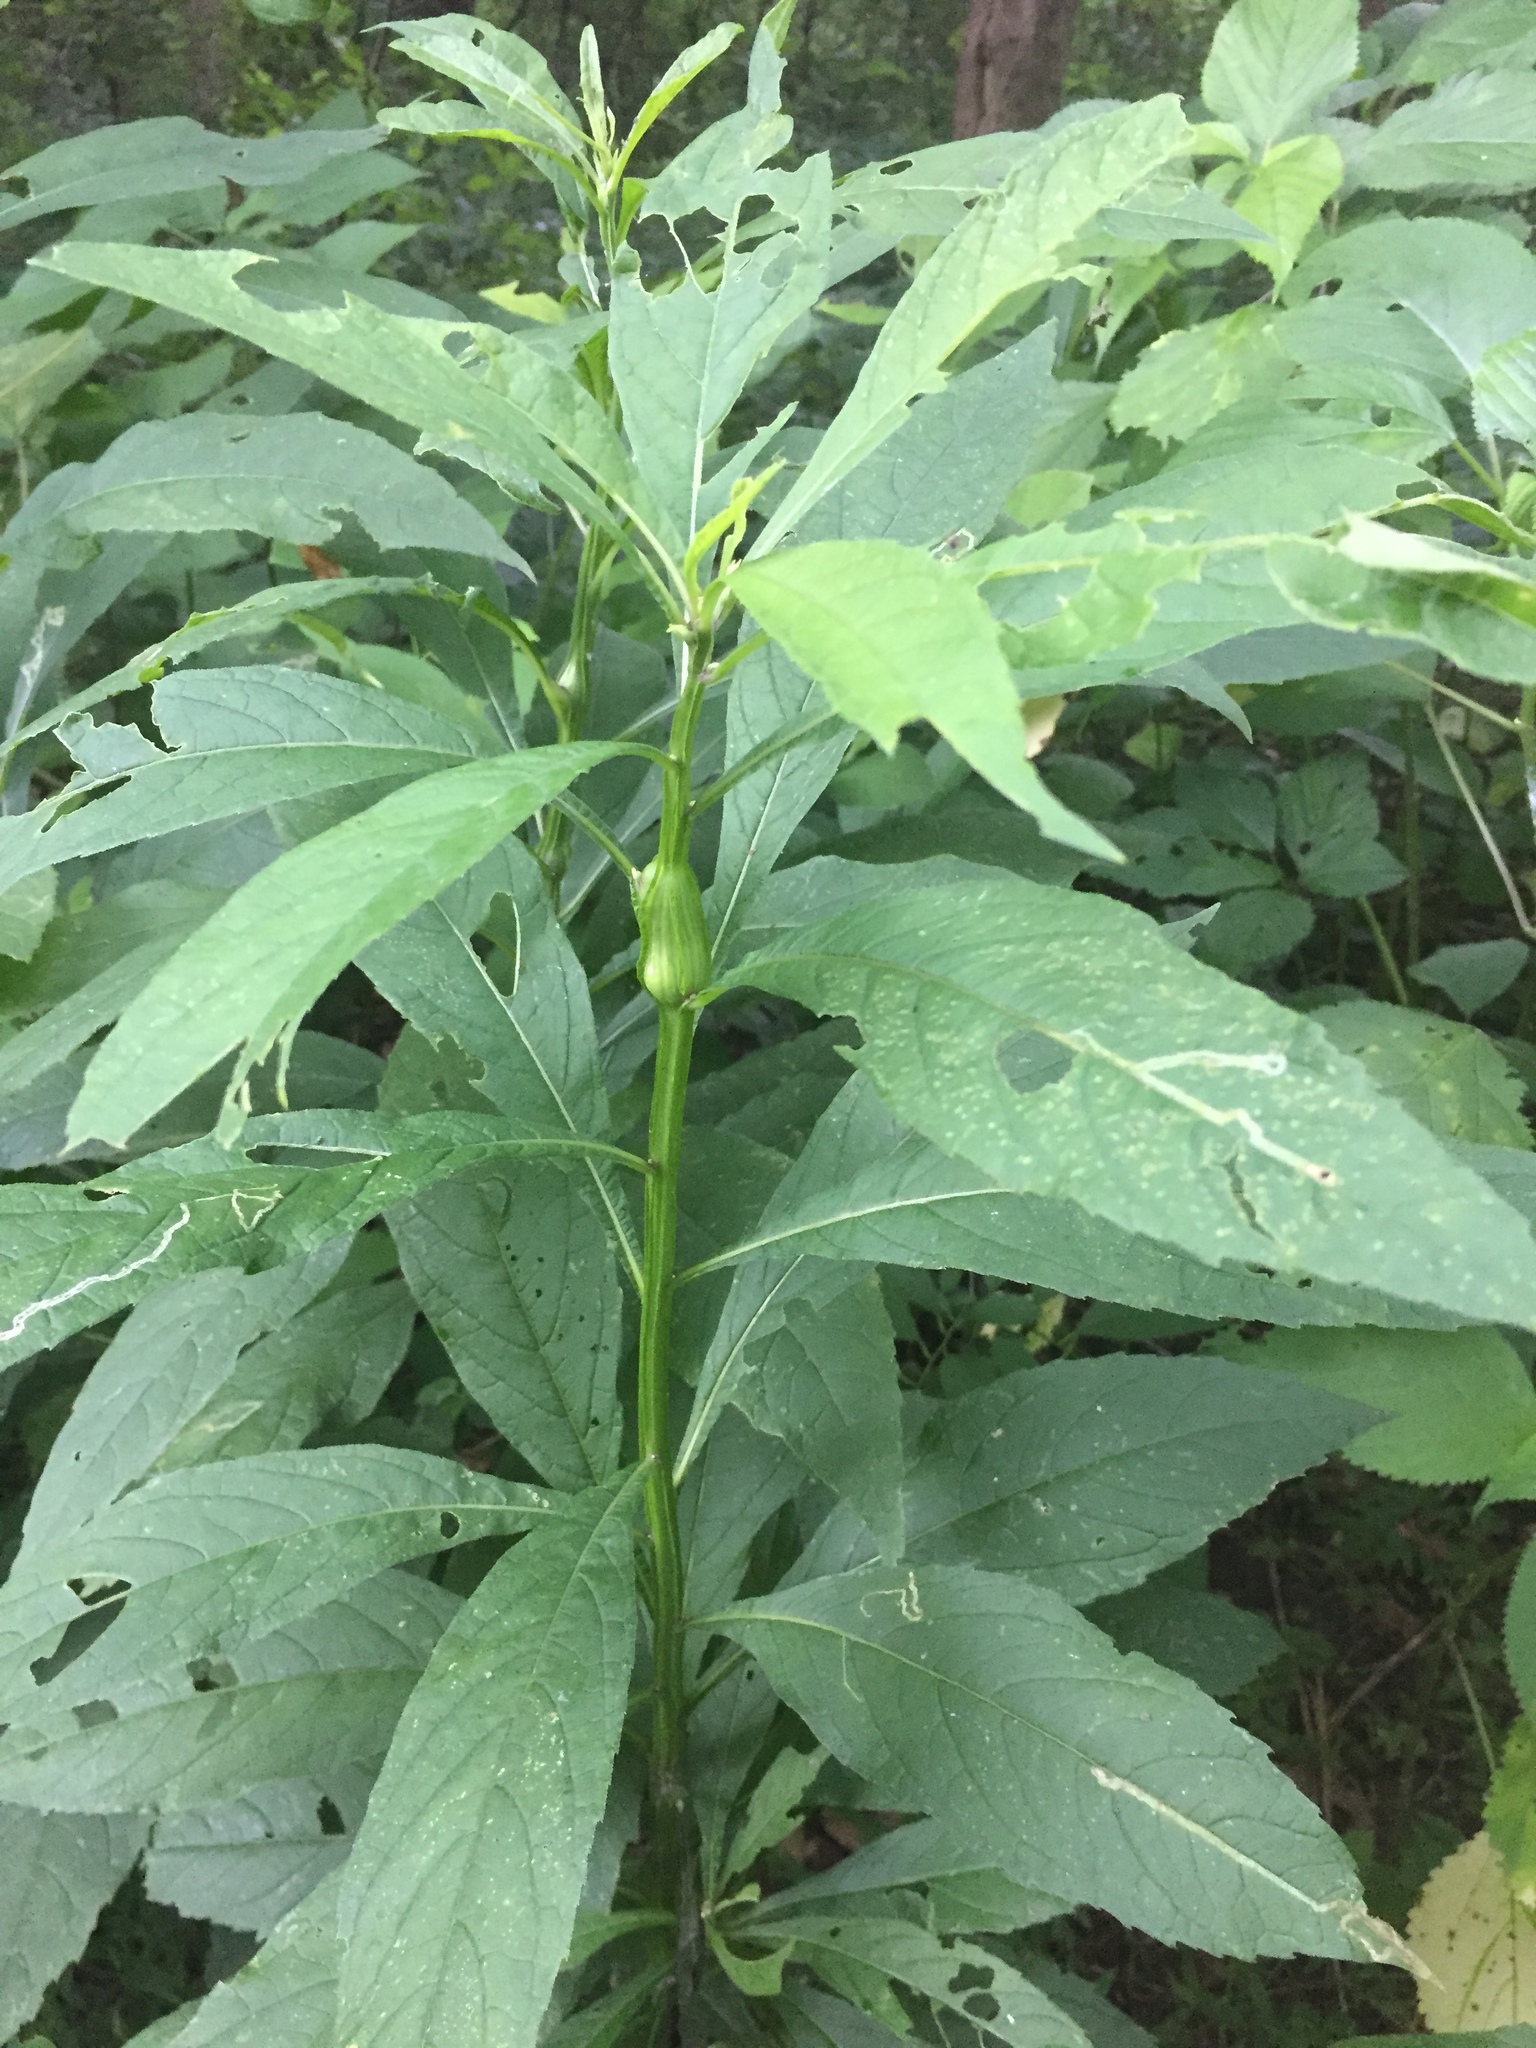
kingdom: Plantae
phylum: Tracheophyta
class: Magnoliopsida
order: Asterales
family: Asteraceae
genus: Verbesina
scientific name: Verbesina alternifolia
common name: Wingstem
